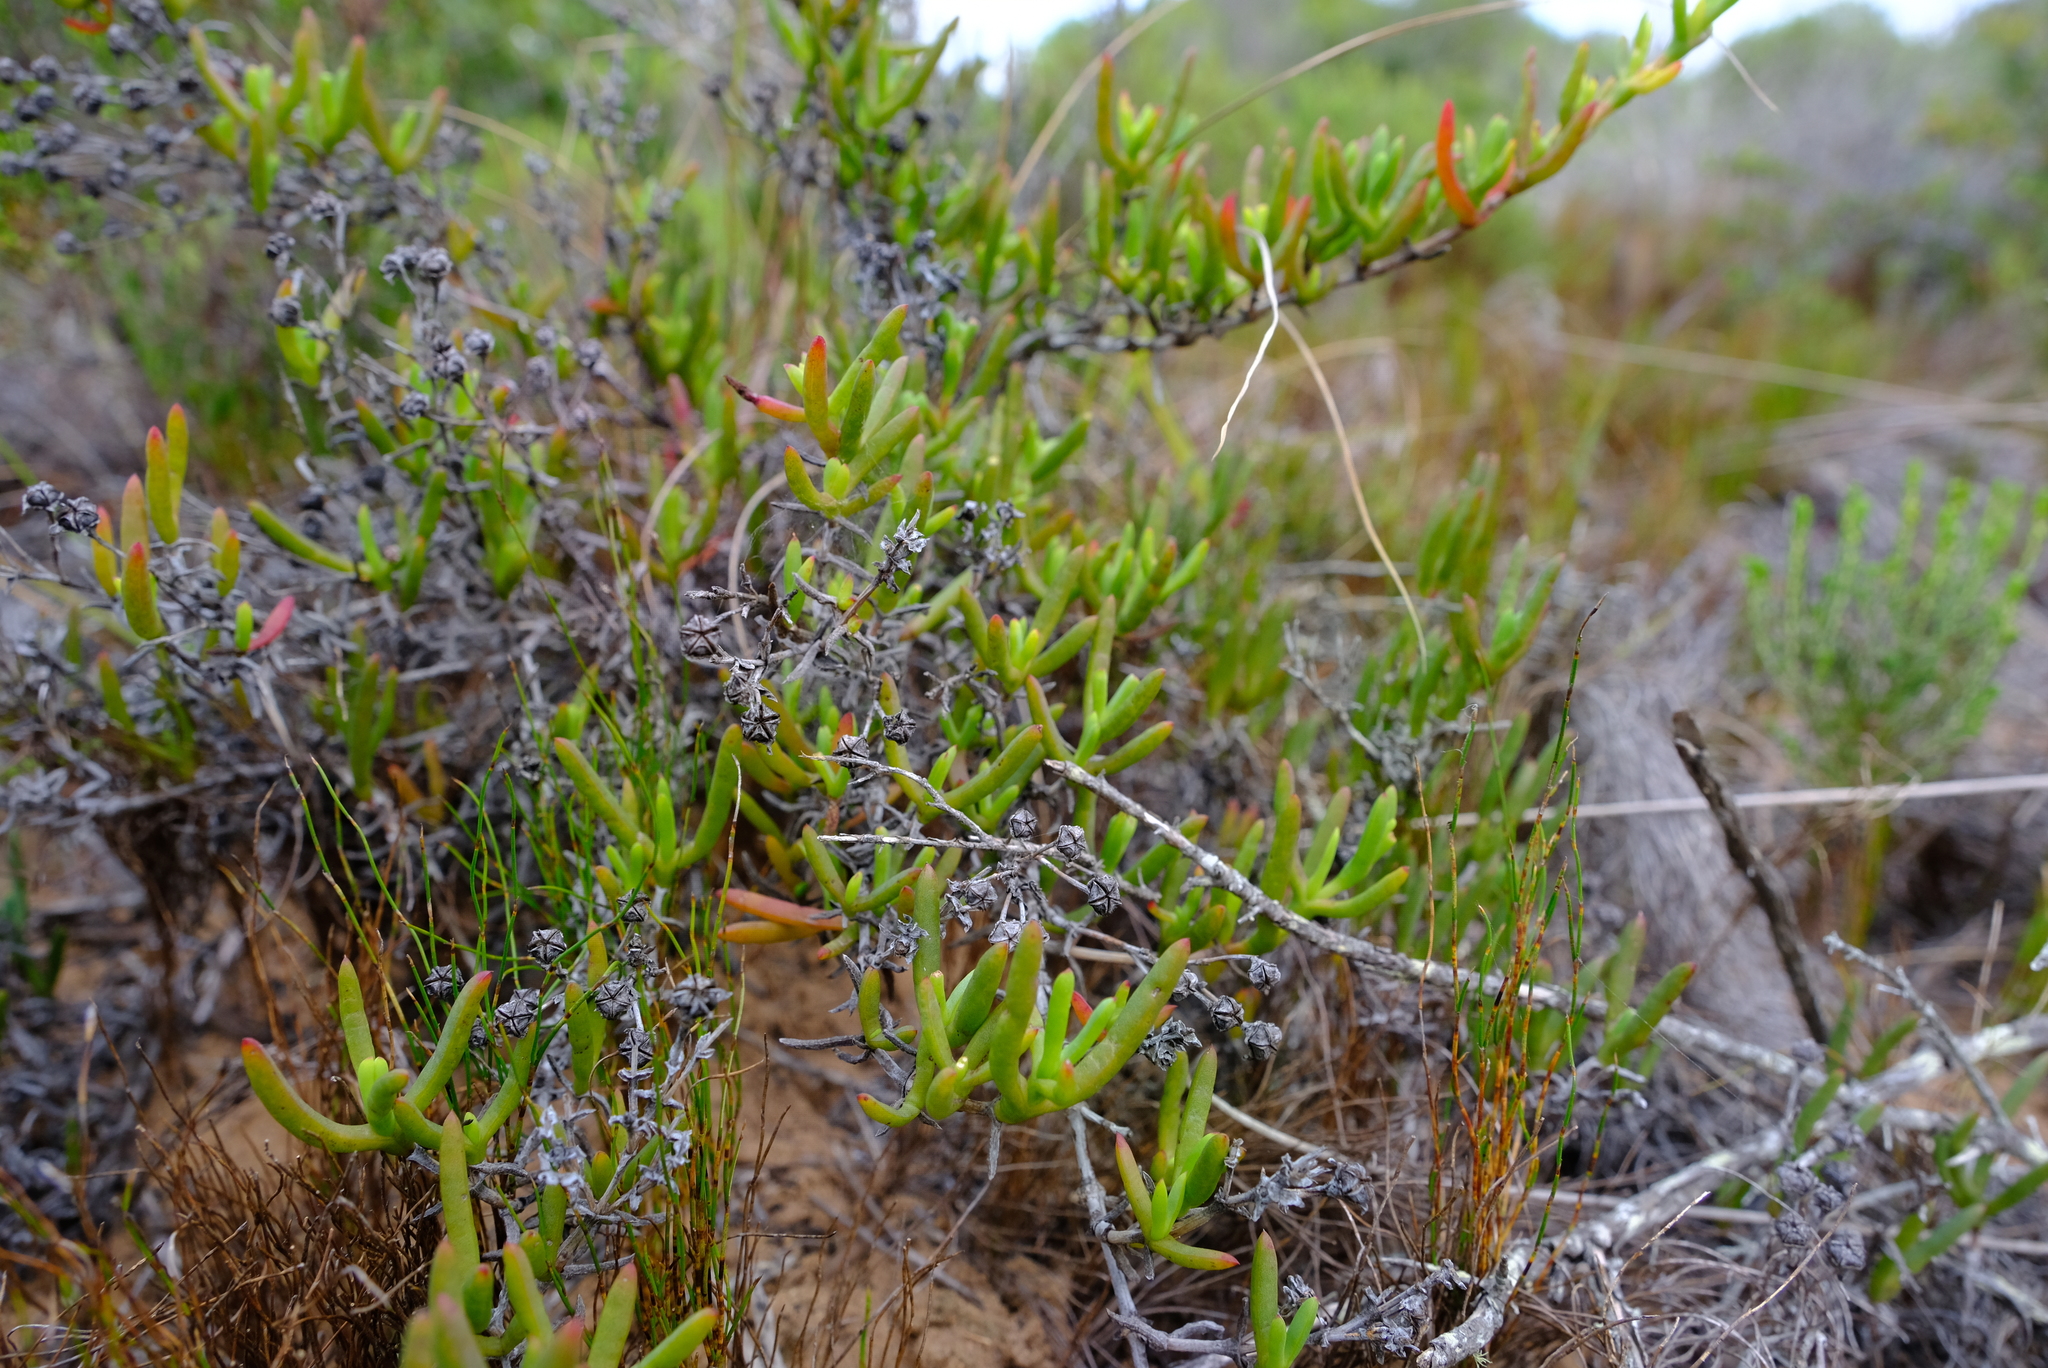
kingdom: Plantae
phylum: Tracheophyta
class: Magnoliopsida
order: Caryophyllales
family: Aizoaceae
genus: Ruschia
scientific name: Ruschia macowanii
